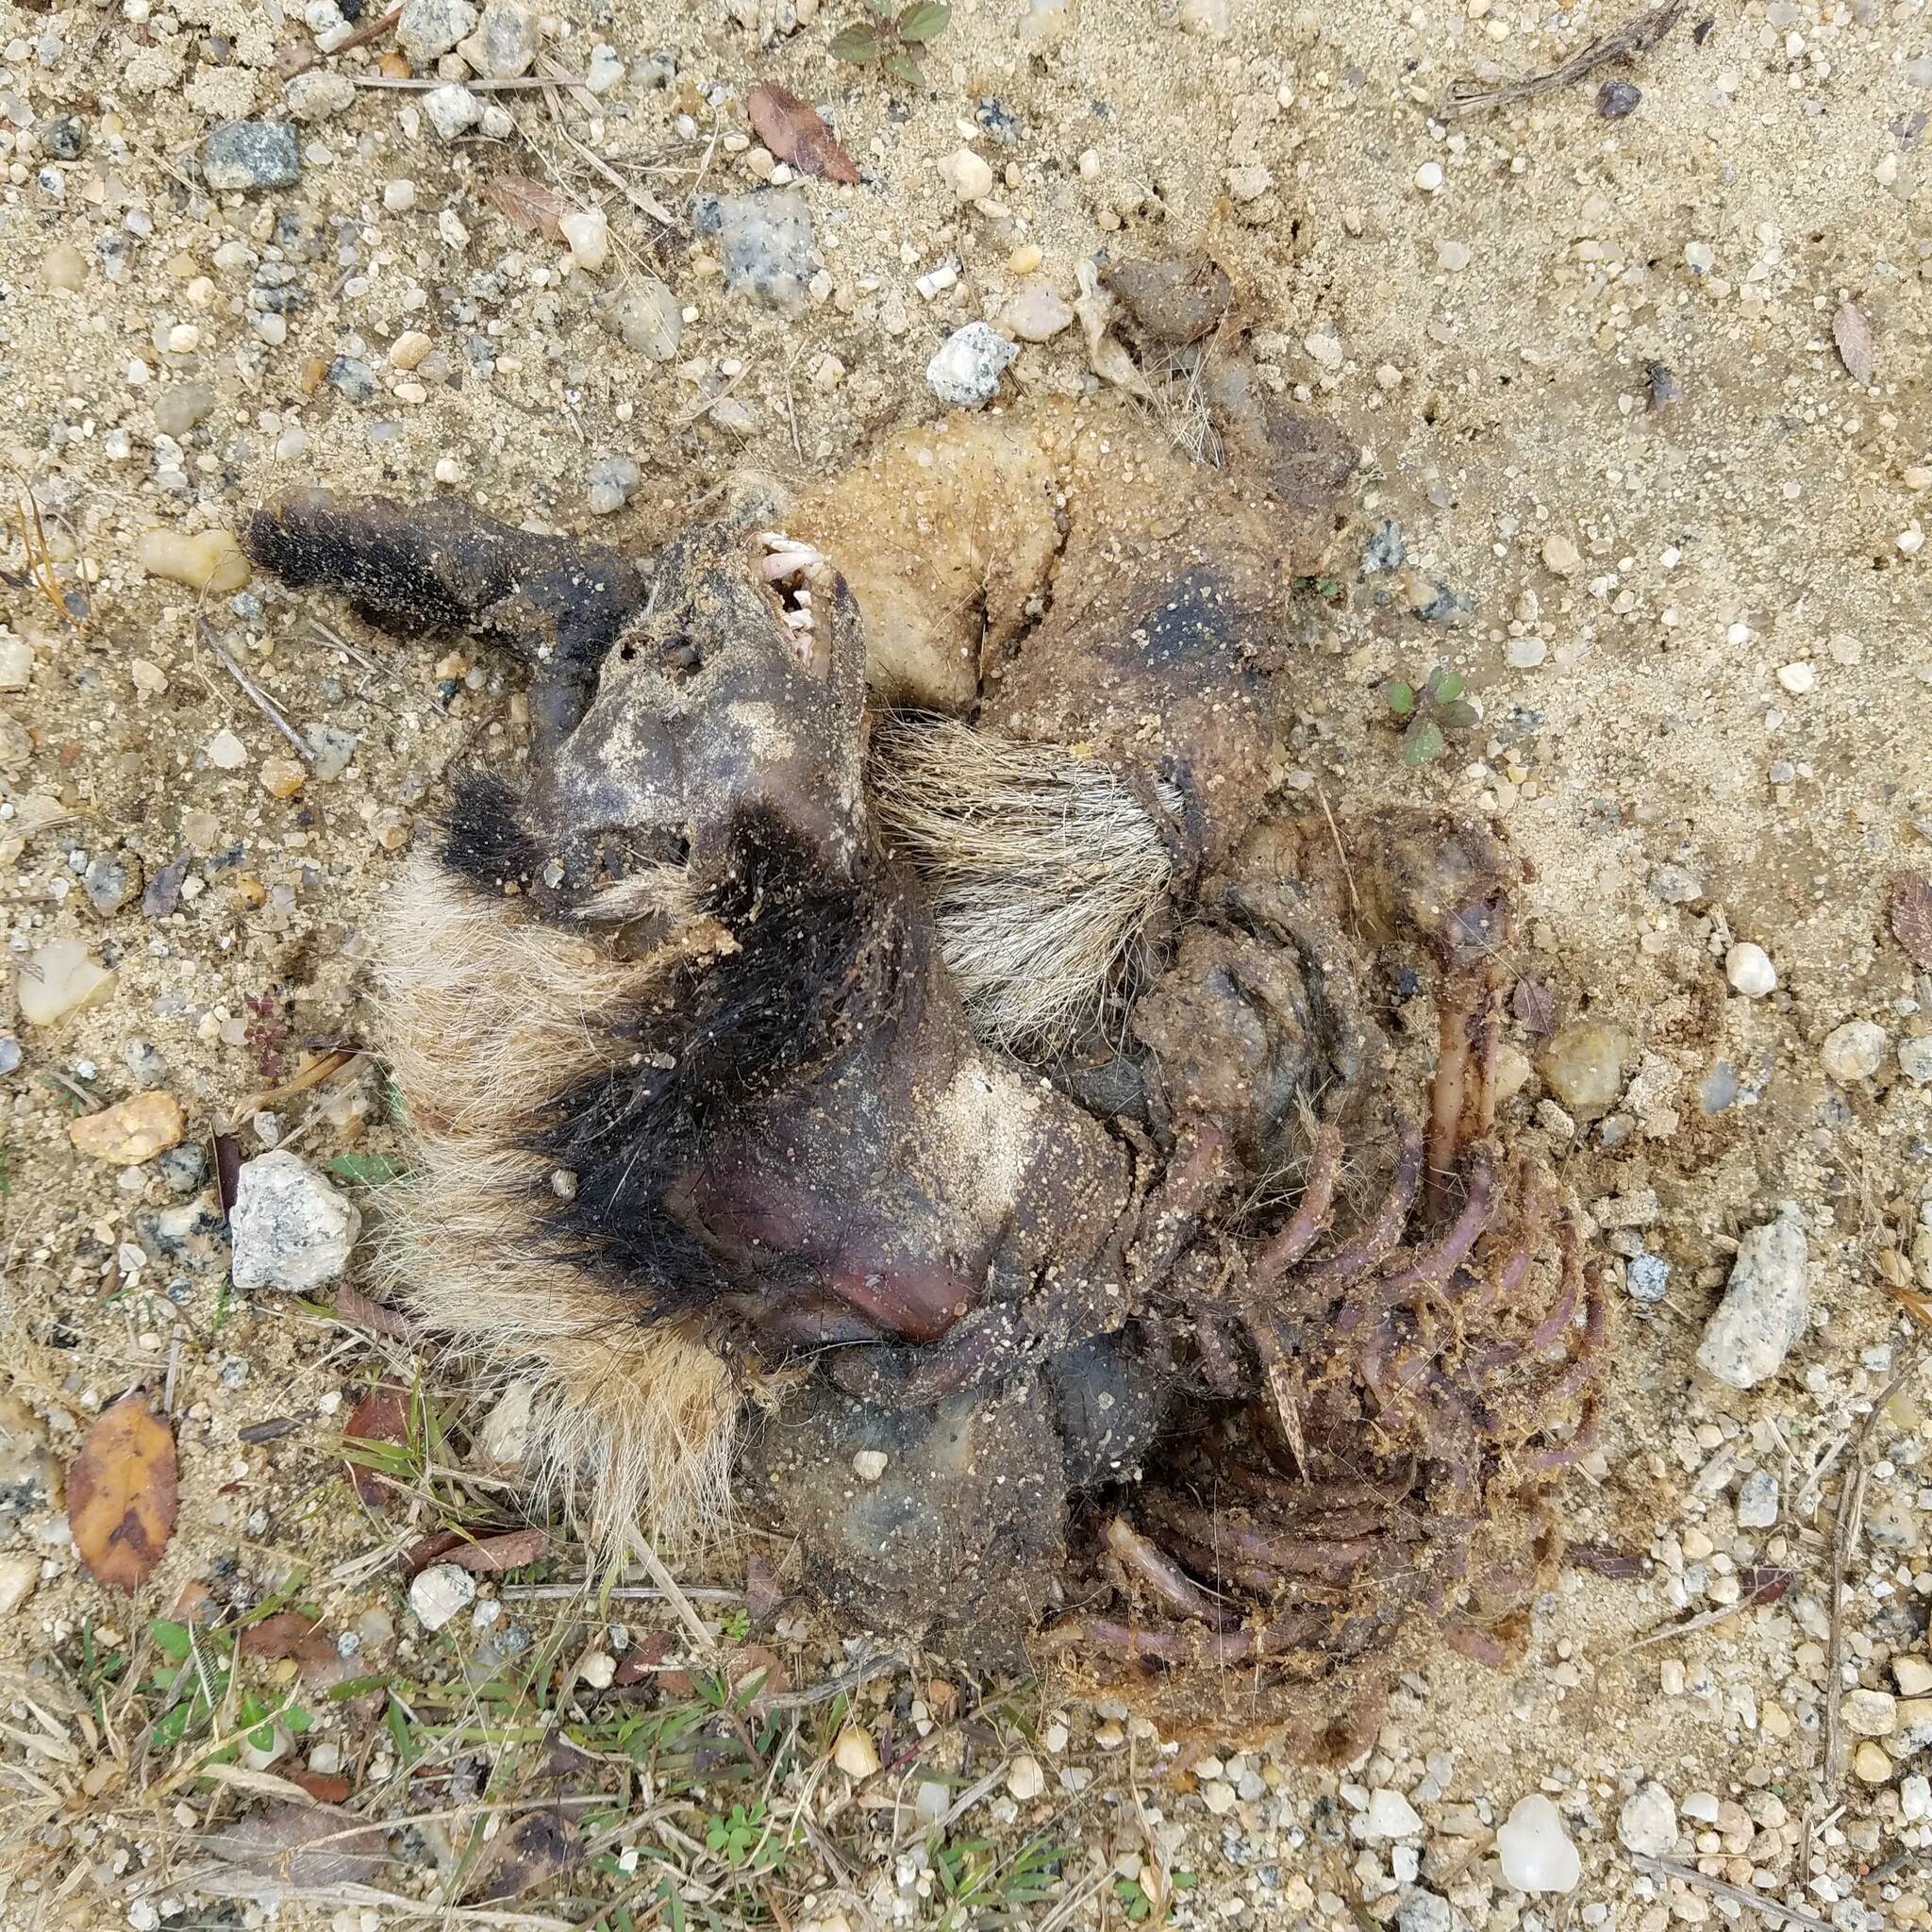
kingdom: Animalia
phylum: Chordata
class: Mammalia
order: Carnivora
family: Mephitidae
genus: Mephitis
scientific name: Mephitis mephitis
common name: Striped skunk
